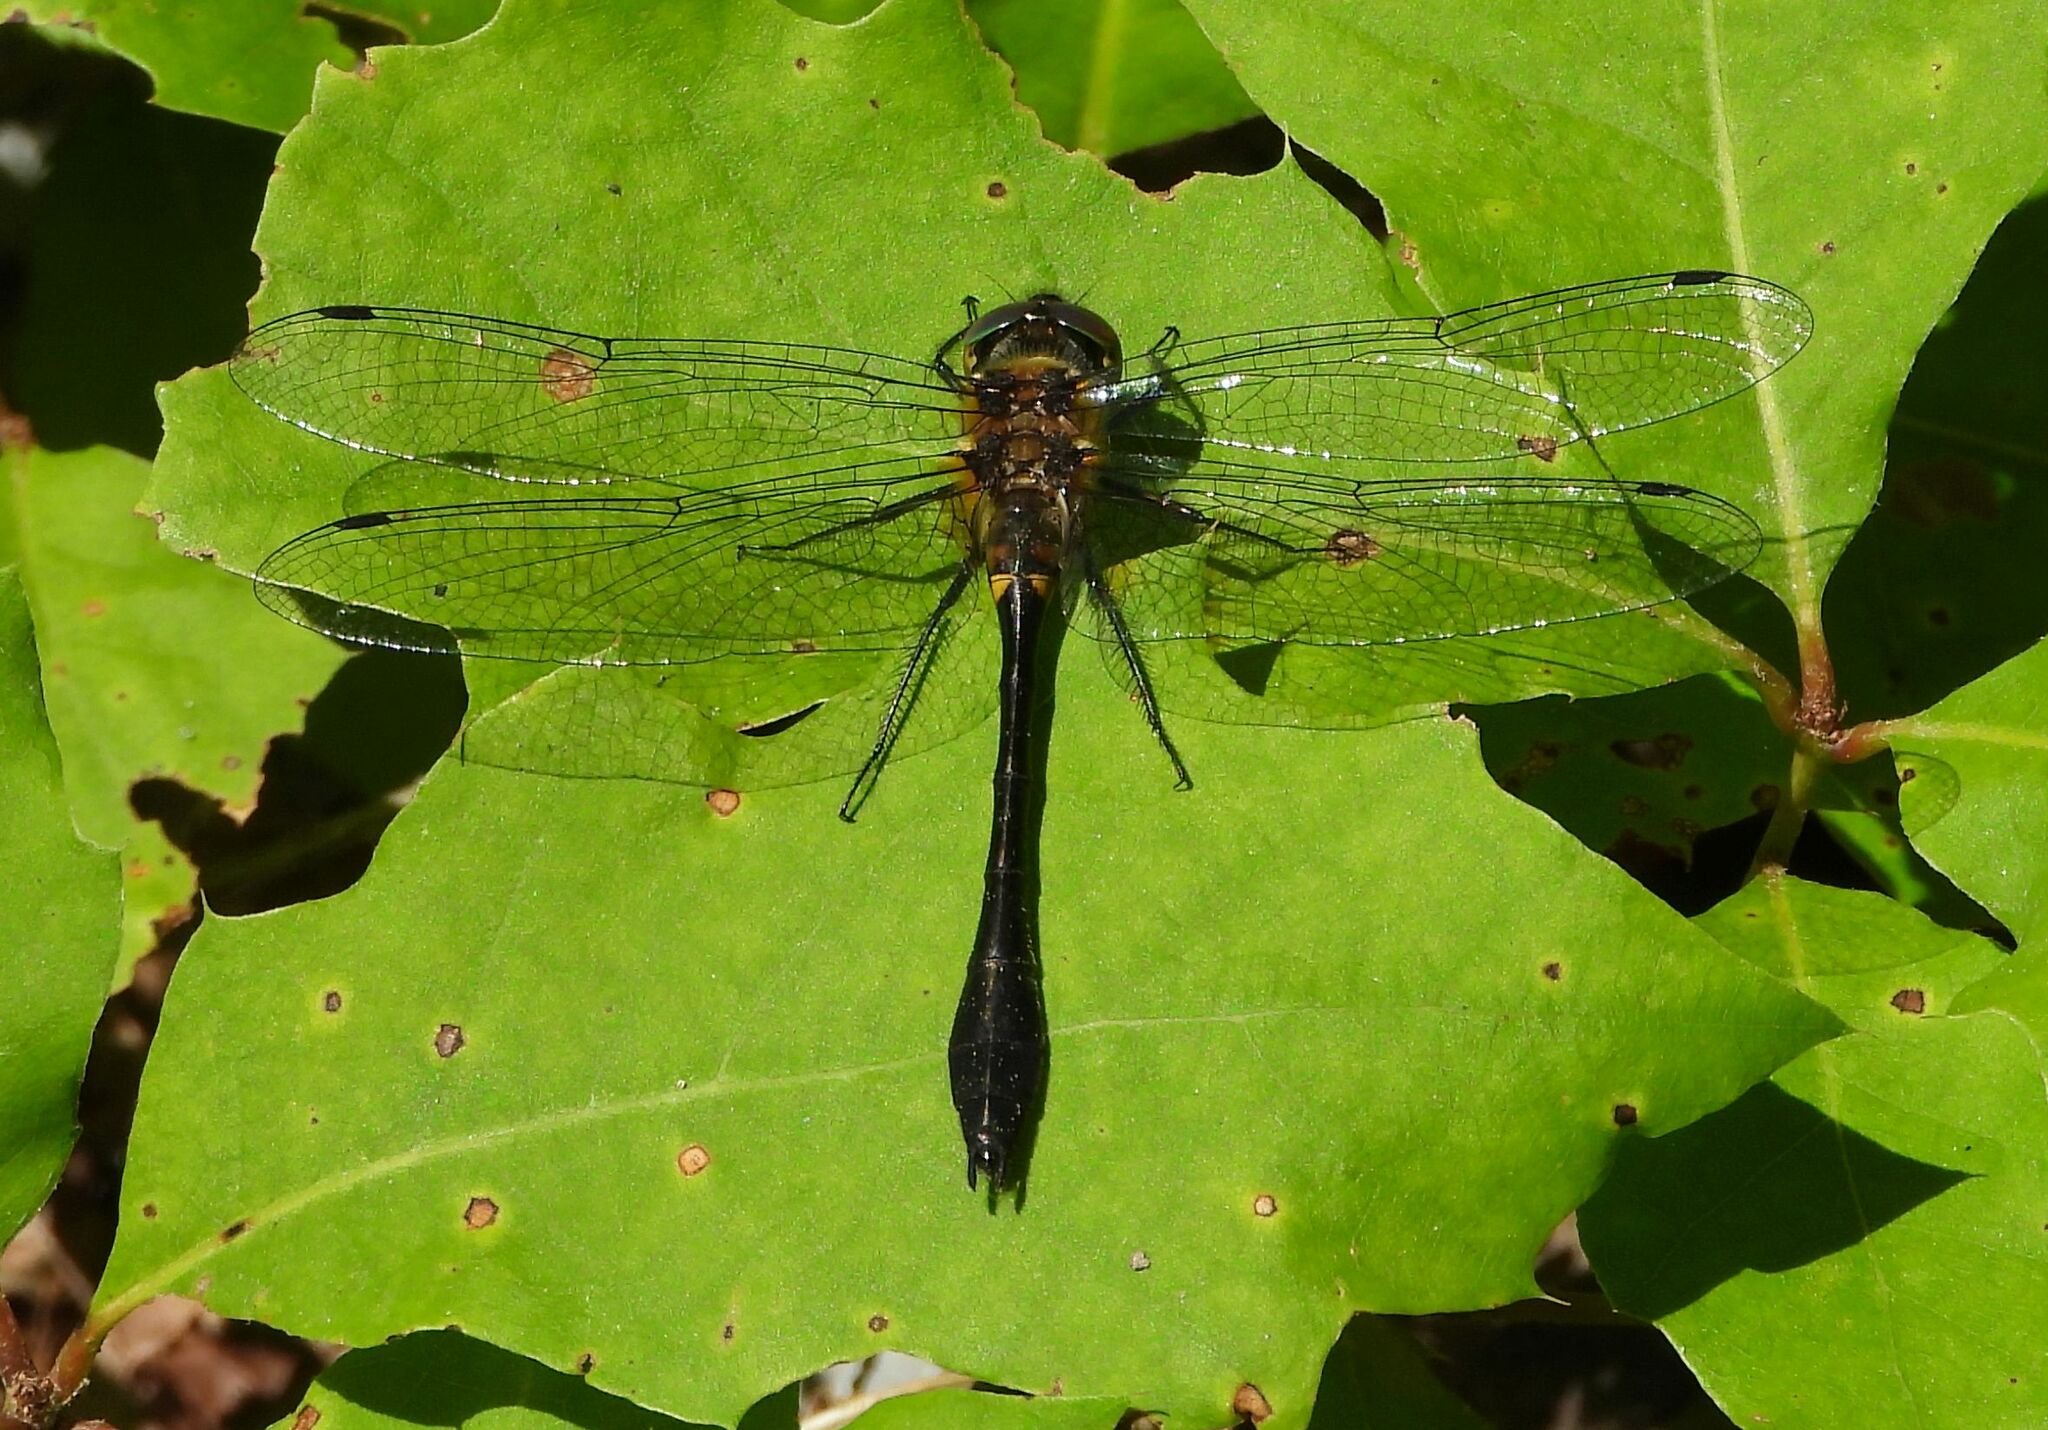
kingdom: Animalia
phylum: Arthropoda
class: Insecta
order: Odonata
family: Corduliidae
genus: Dorocordulia
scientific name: Dorocordulia libera
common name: Racket-tailed emerald
